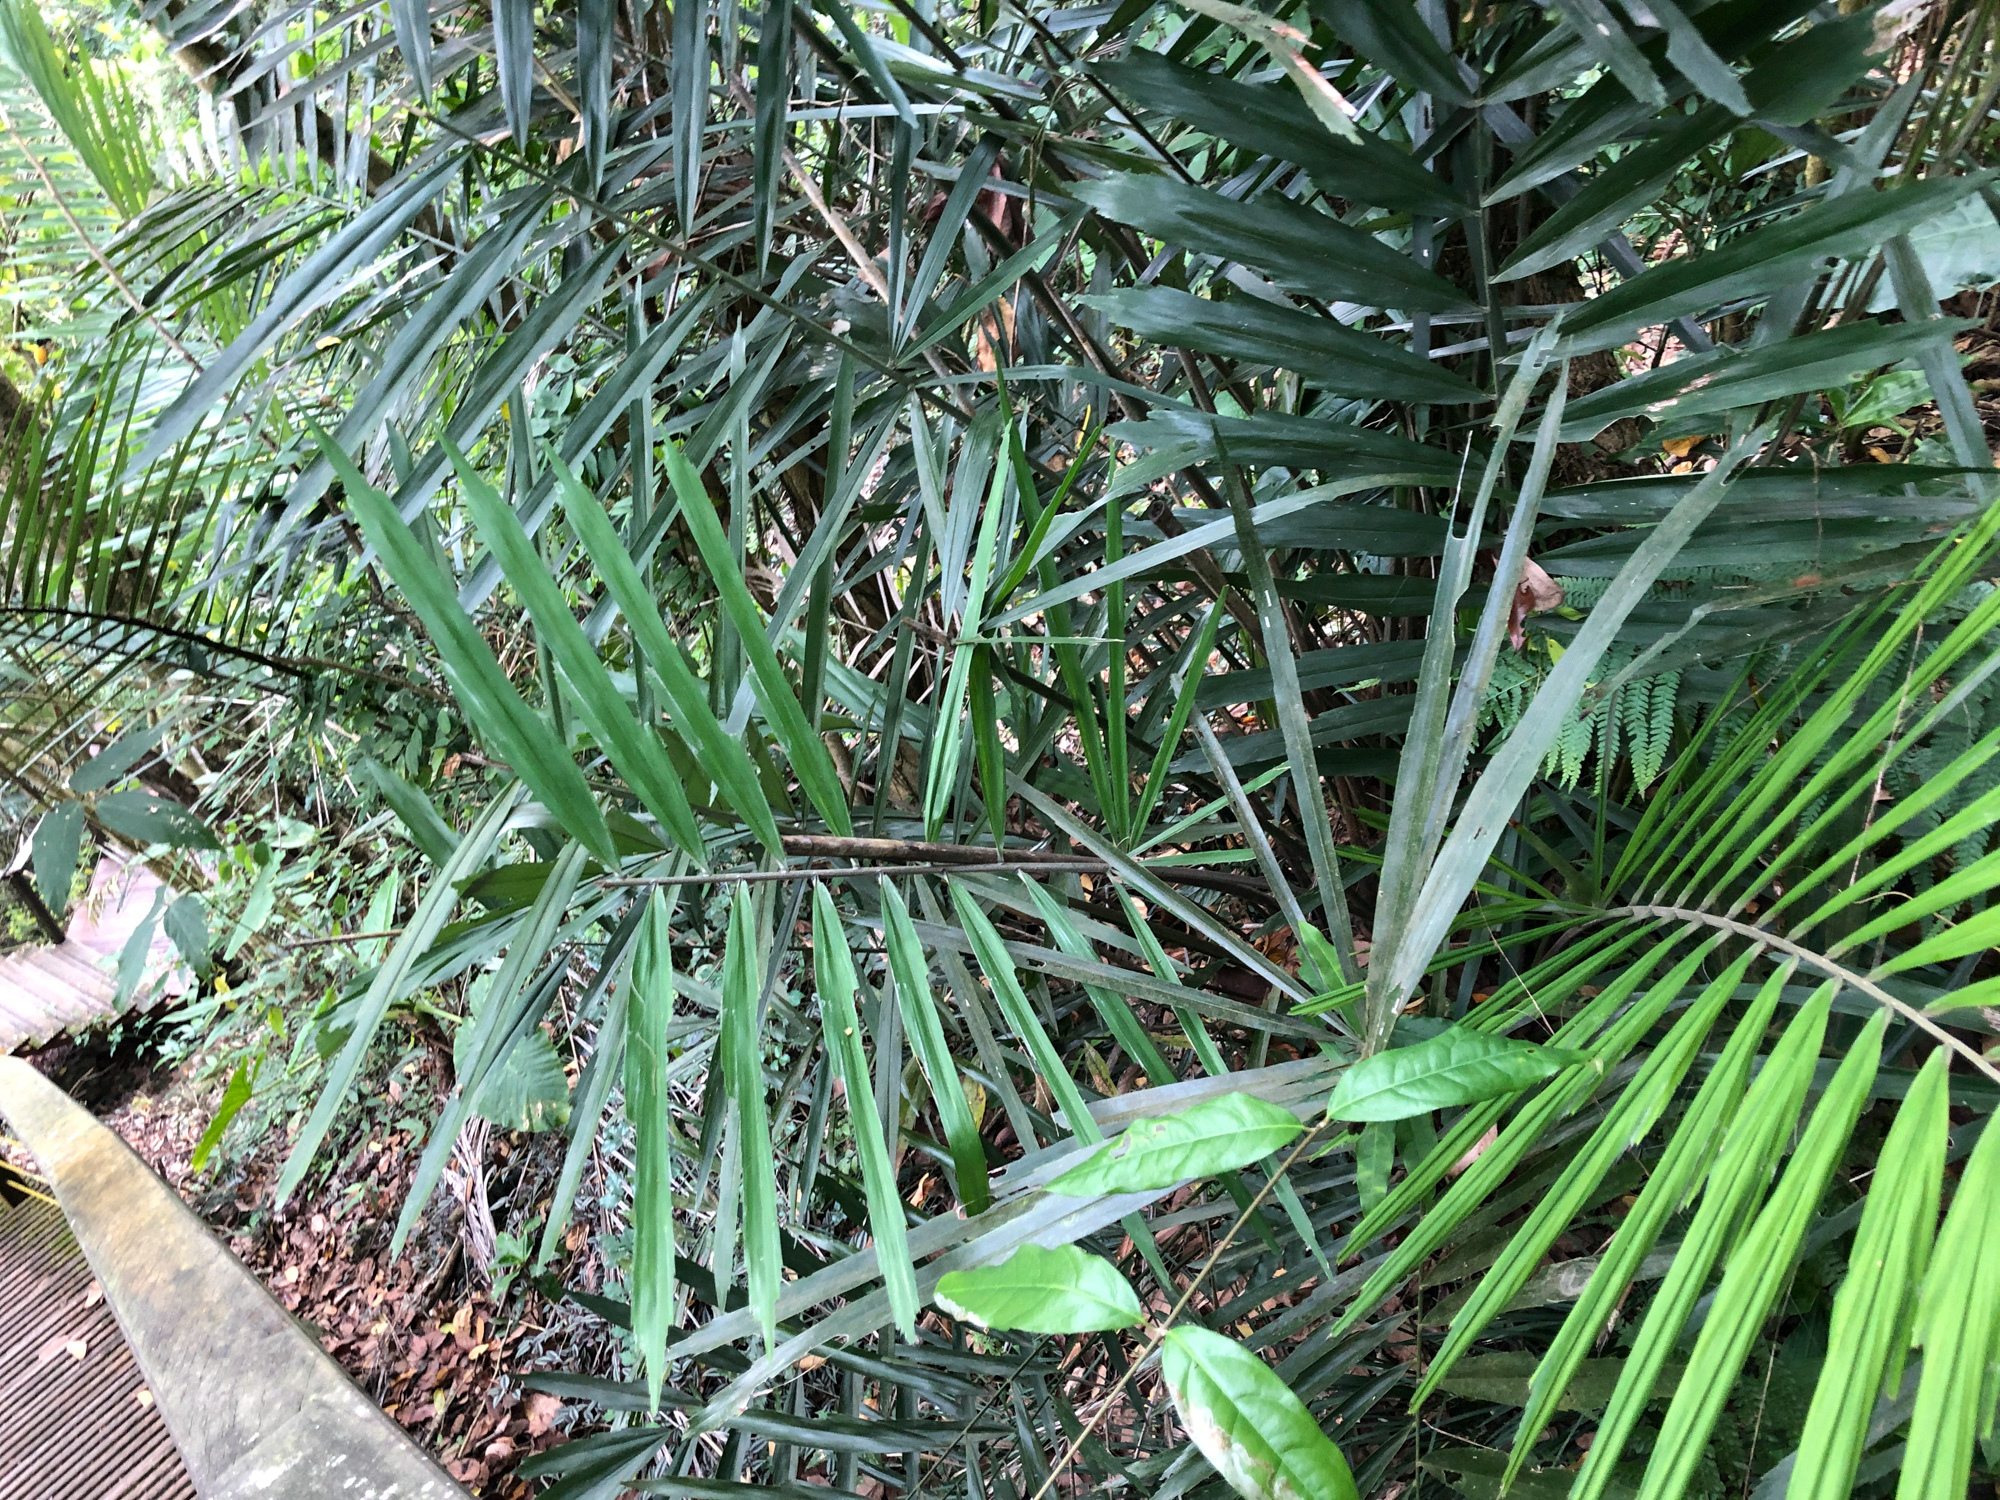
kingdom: Plantae
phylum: Tracheophyta
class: Liliopsida
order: Arecales
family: Arecaceae
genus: Arenga
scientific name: Arenga engleri
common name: Formosan sugar palm
